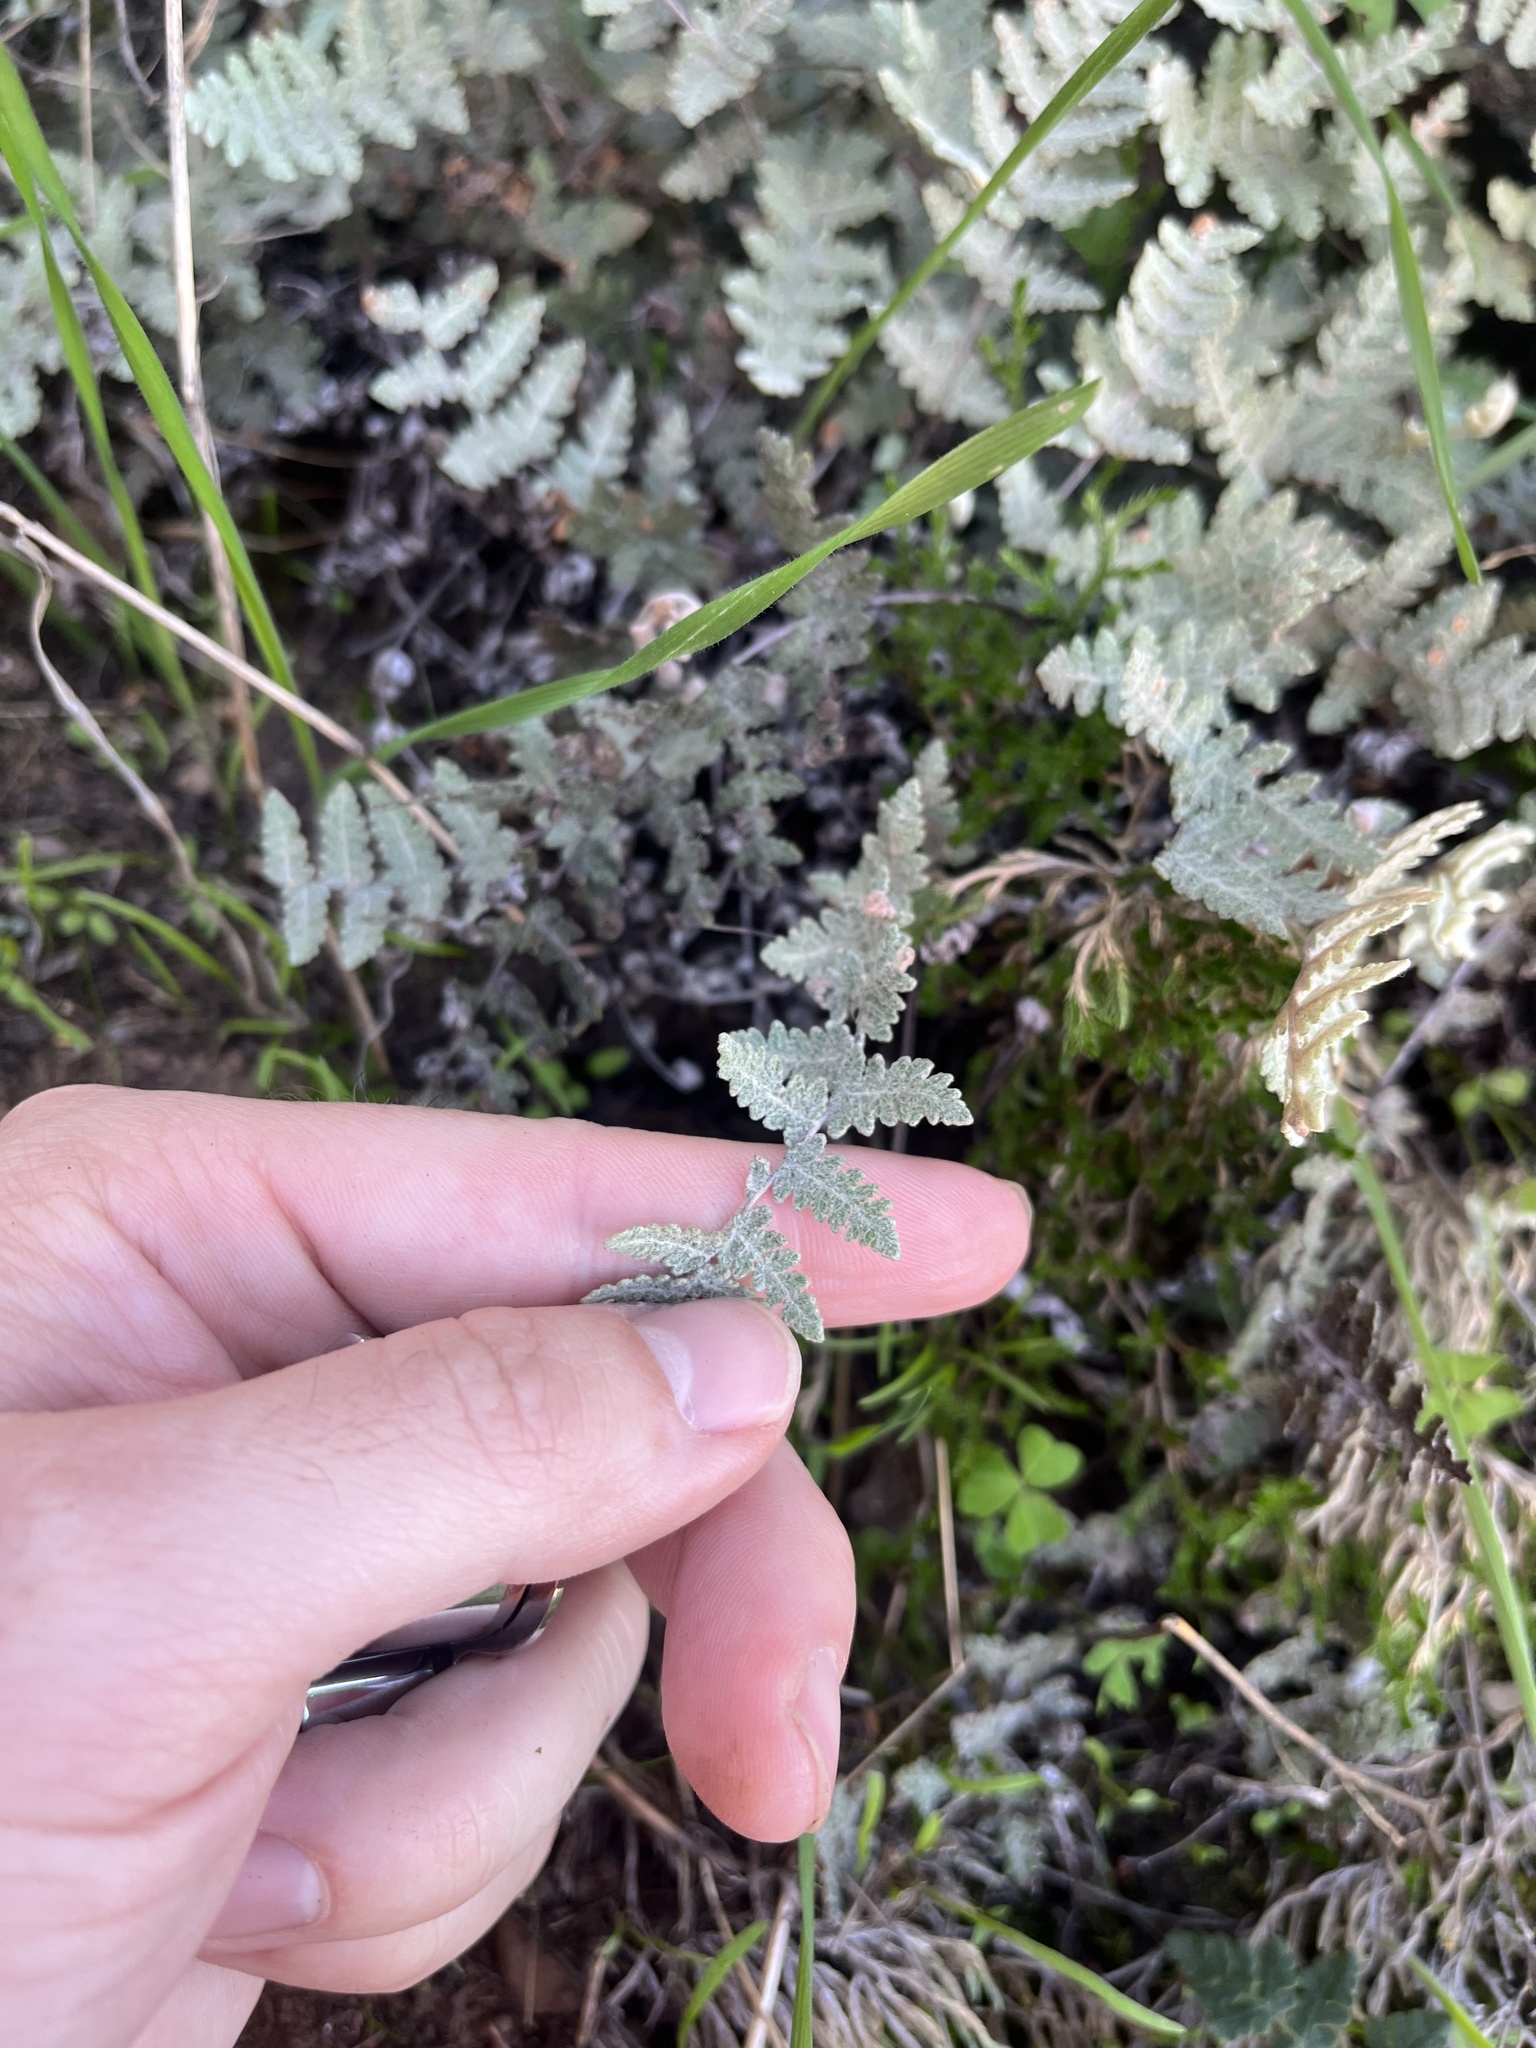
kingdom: Plantae
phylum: Tracheophyta
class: Polypodiopsida
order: Polypodiales
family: Pteridaceae
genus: Myriopteris
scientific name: Myriopteris newberryi
